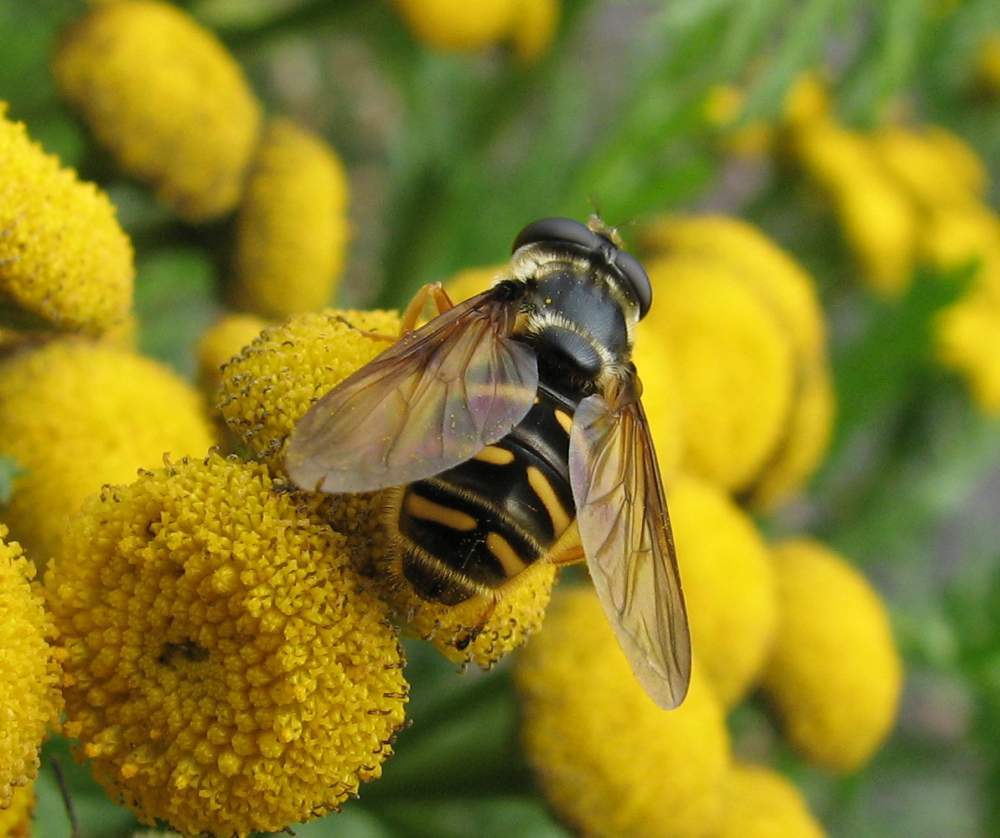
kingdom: Animalia
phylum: Arthropoda
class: Insecta
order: Diptera
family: Syrphidae
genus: Sericomyia
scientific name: Sericomyia chrysotoxoides
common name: Oblique-banded pond fly
